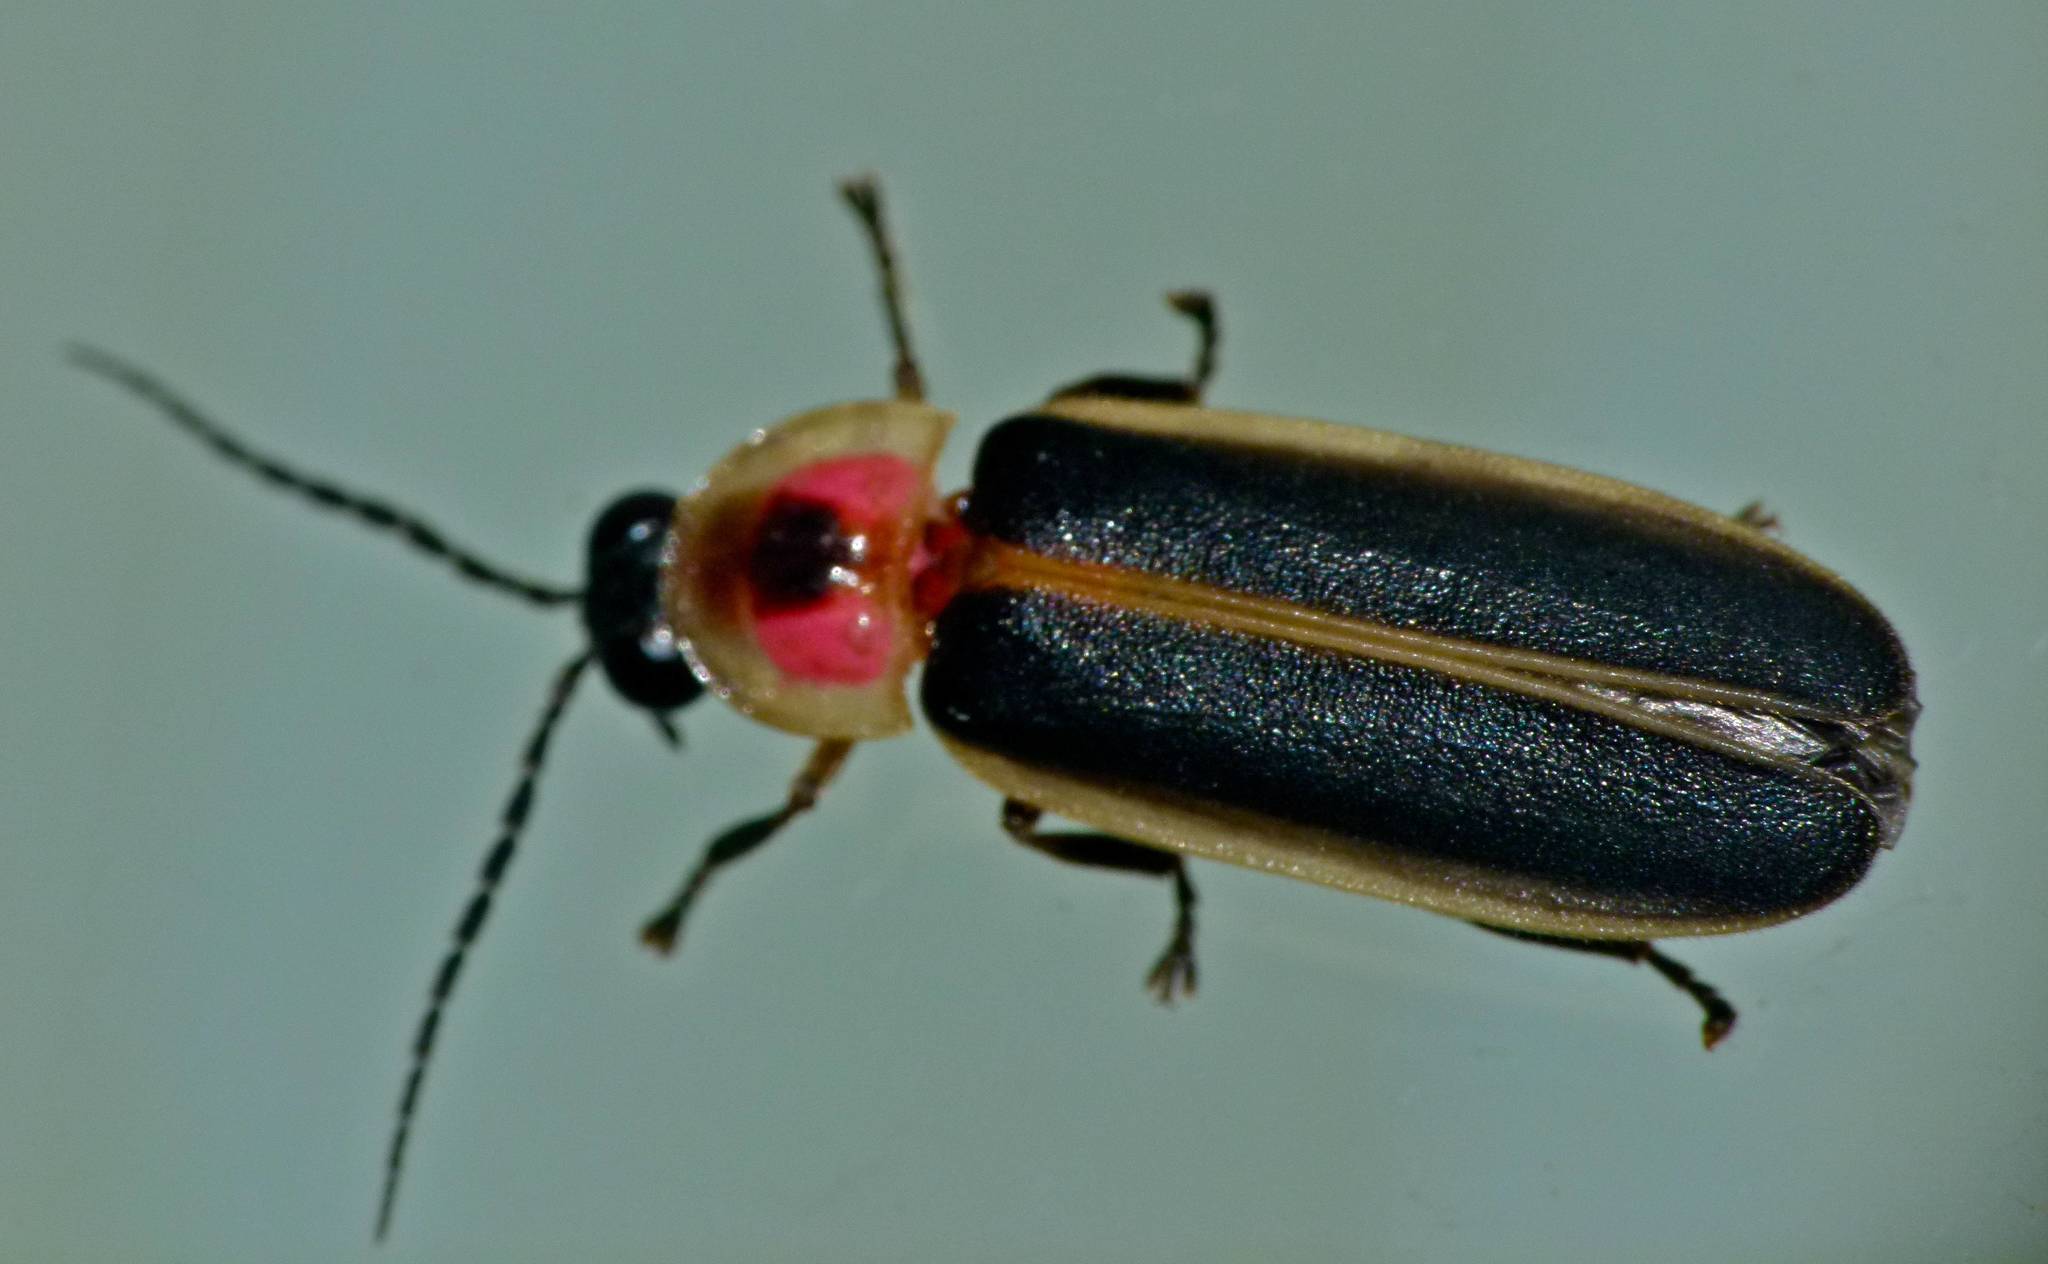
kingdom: Animalia
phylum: Arthropoda
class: Insecta
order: Coleoptera
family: Lampyridae
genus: Photinus
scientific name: Photinus pyralis
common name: Big dipper firefly
